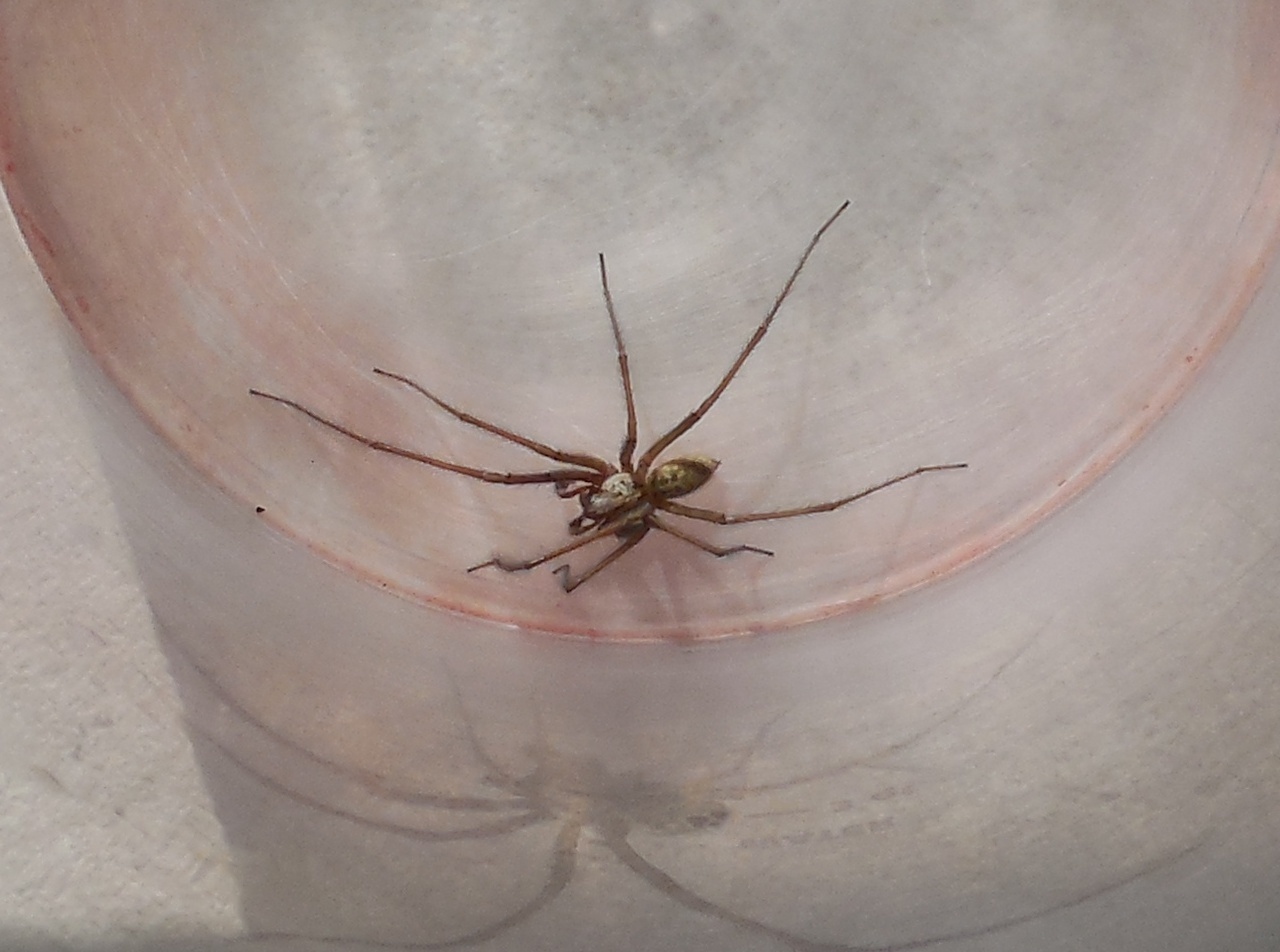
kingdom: Animalia
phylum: Arthropoda
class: Arachnida
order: Araneae
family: Agelenidae
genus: Eratigena
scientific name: Eratigena duellica
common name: Giant house spider
